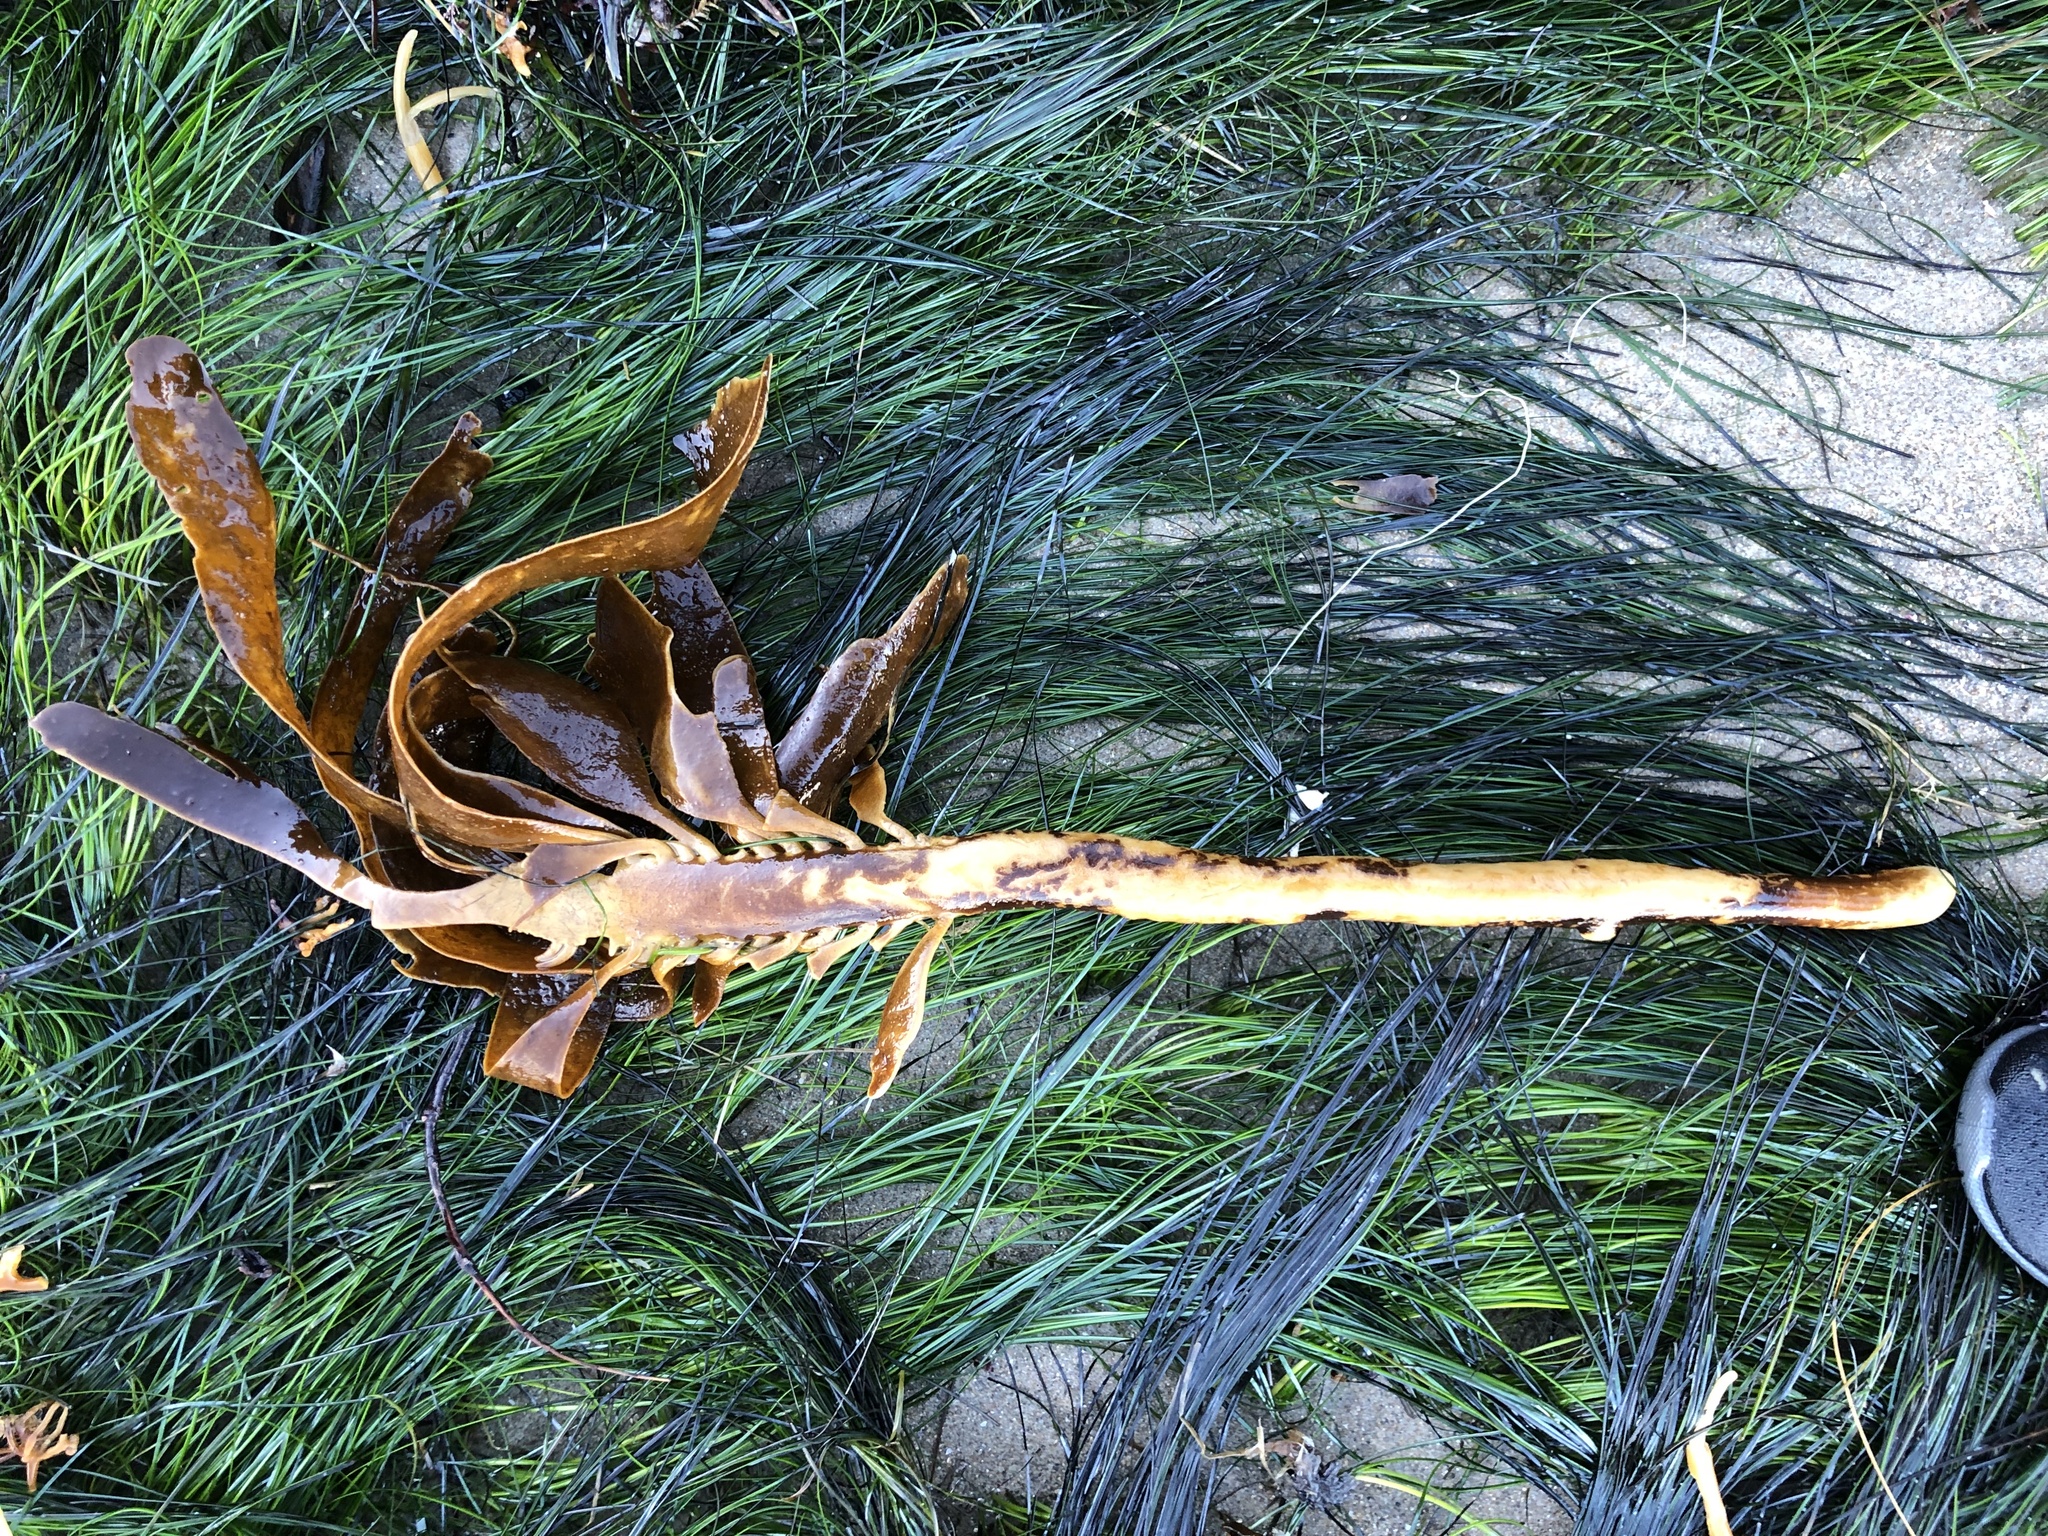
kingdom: Chromista
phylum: Ochrophyta
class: Phaeophyceae
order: Laminariales
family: Alariaceae
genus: Pterygophora
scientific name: Pterygophora californica
